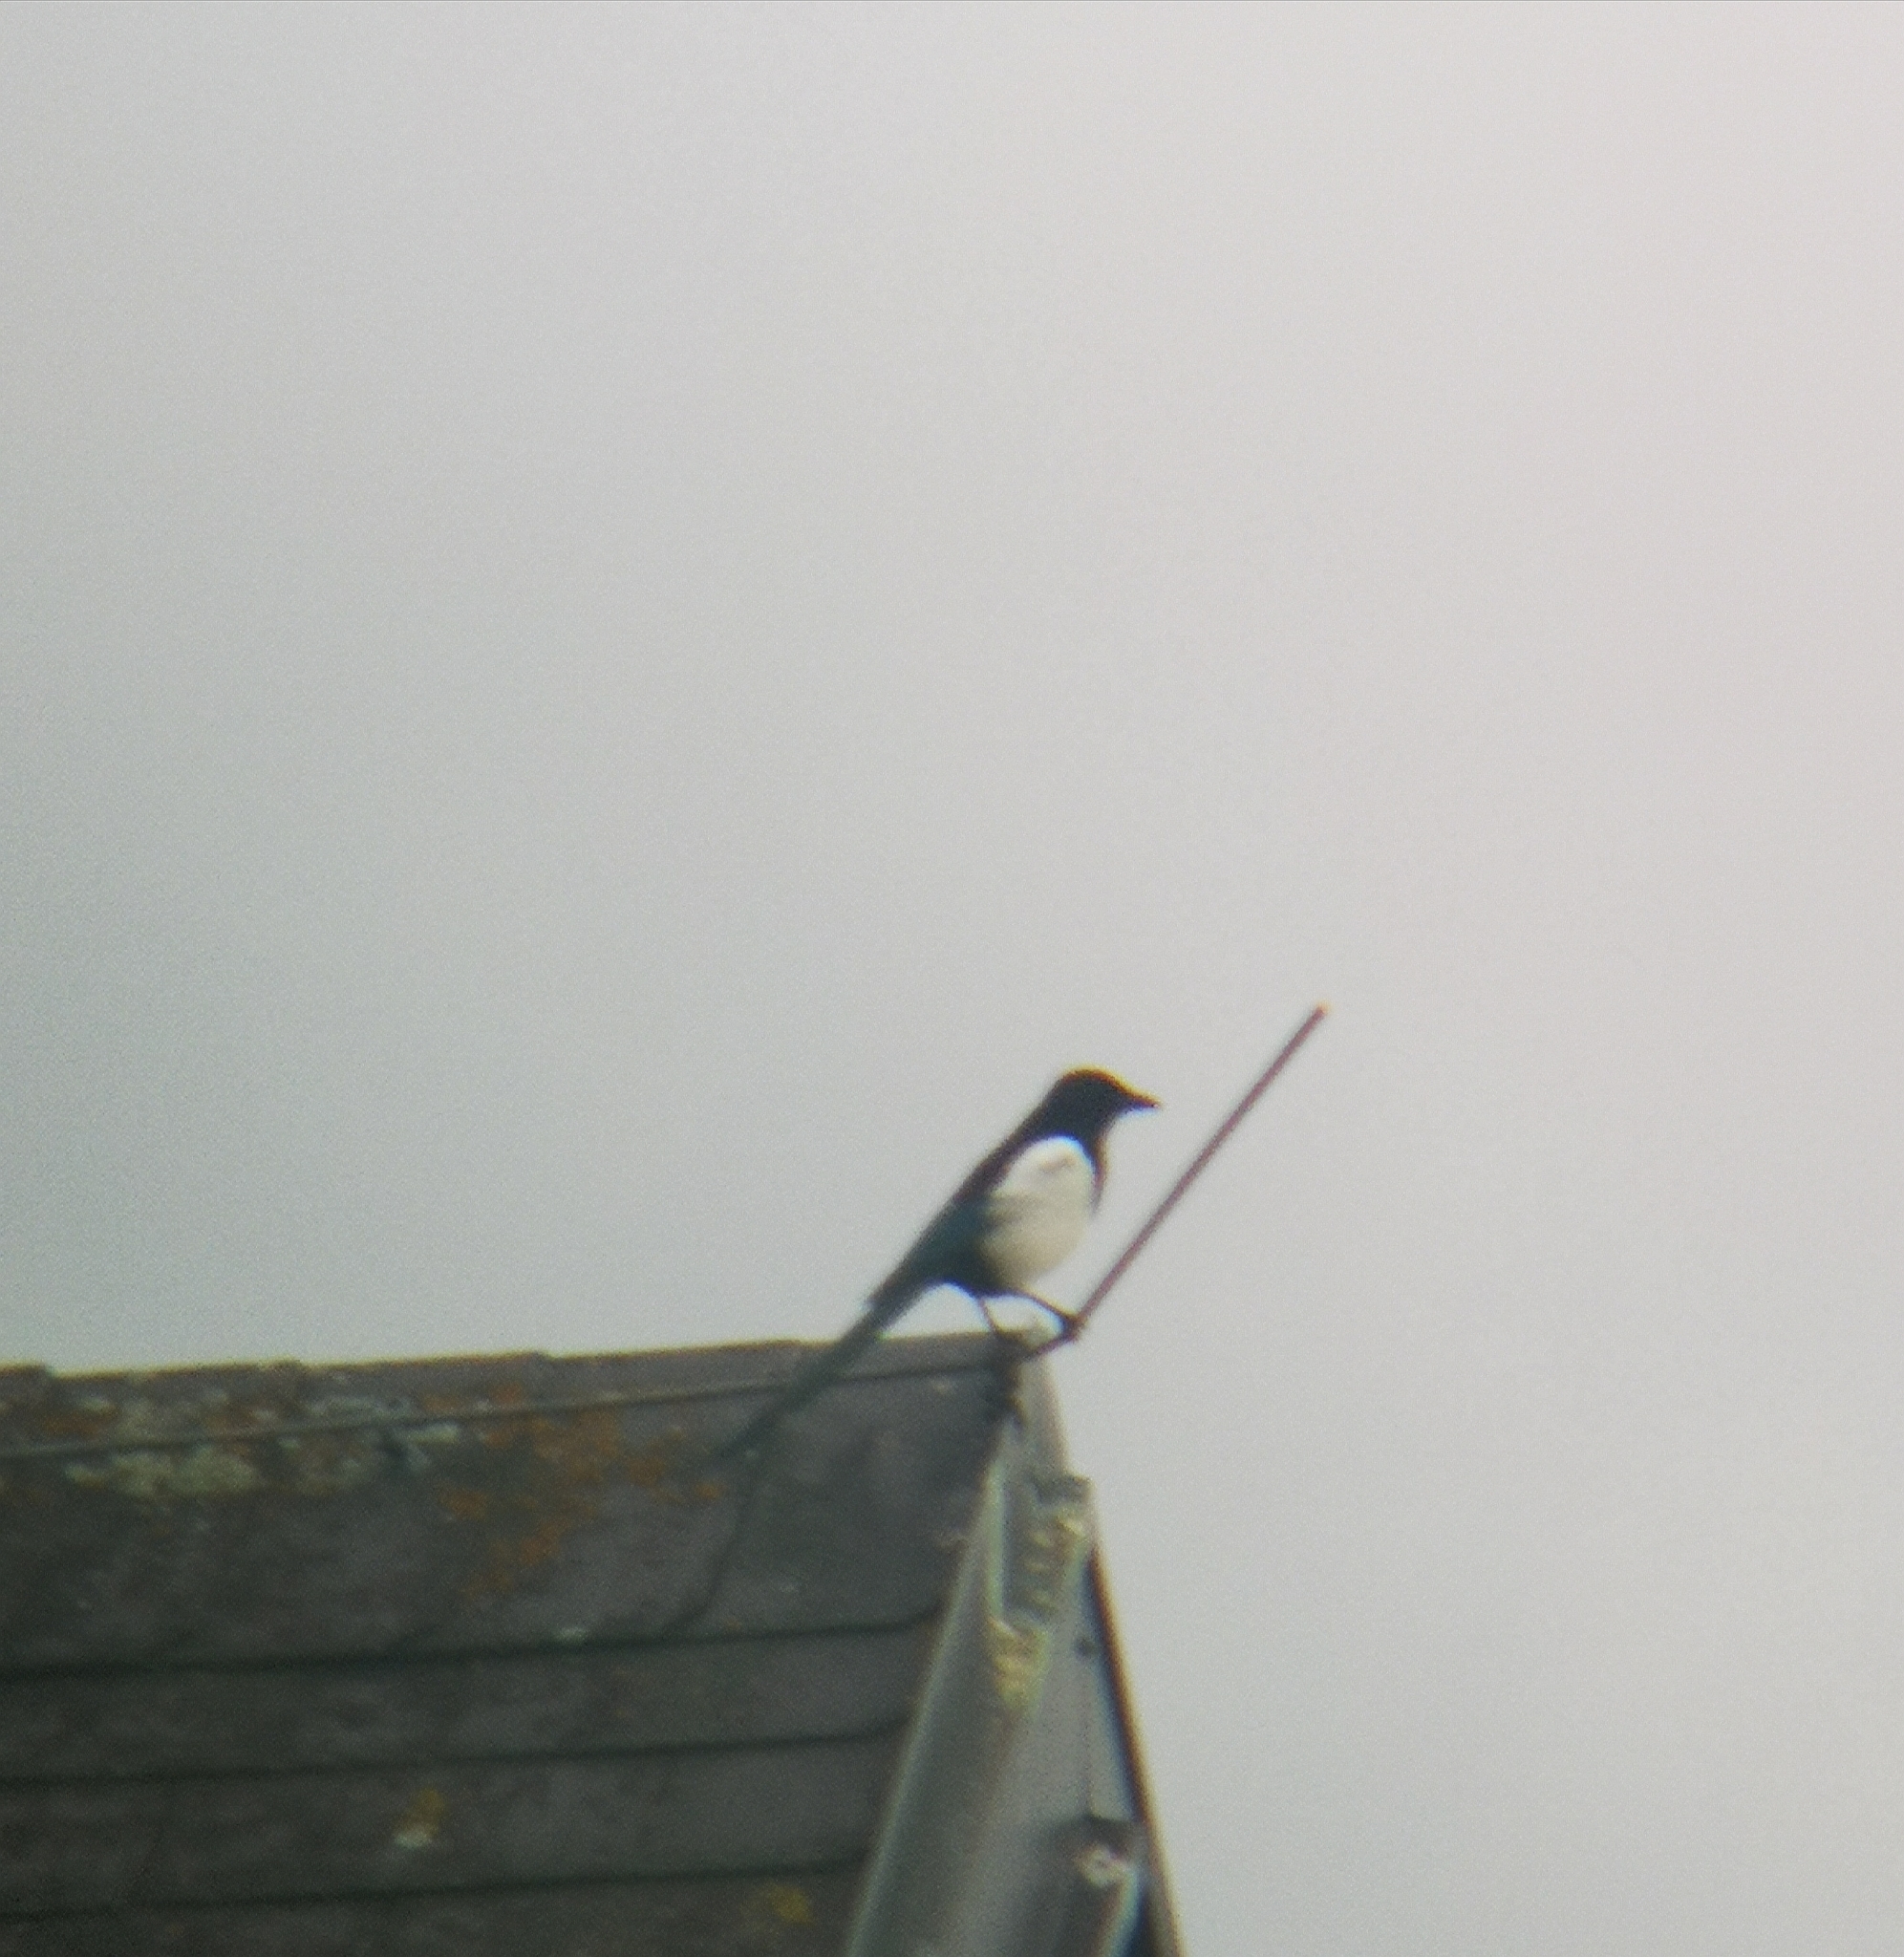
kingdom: Animalia
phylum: Chordata
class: Aves
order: Passeriformes
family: Corvidae
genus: Pica
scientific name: Pica pica
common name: Eurasian magpie
